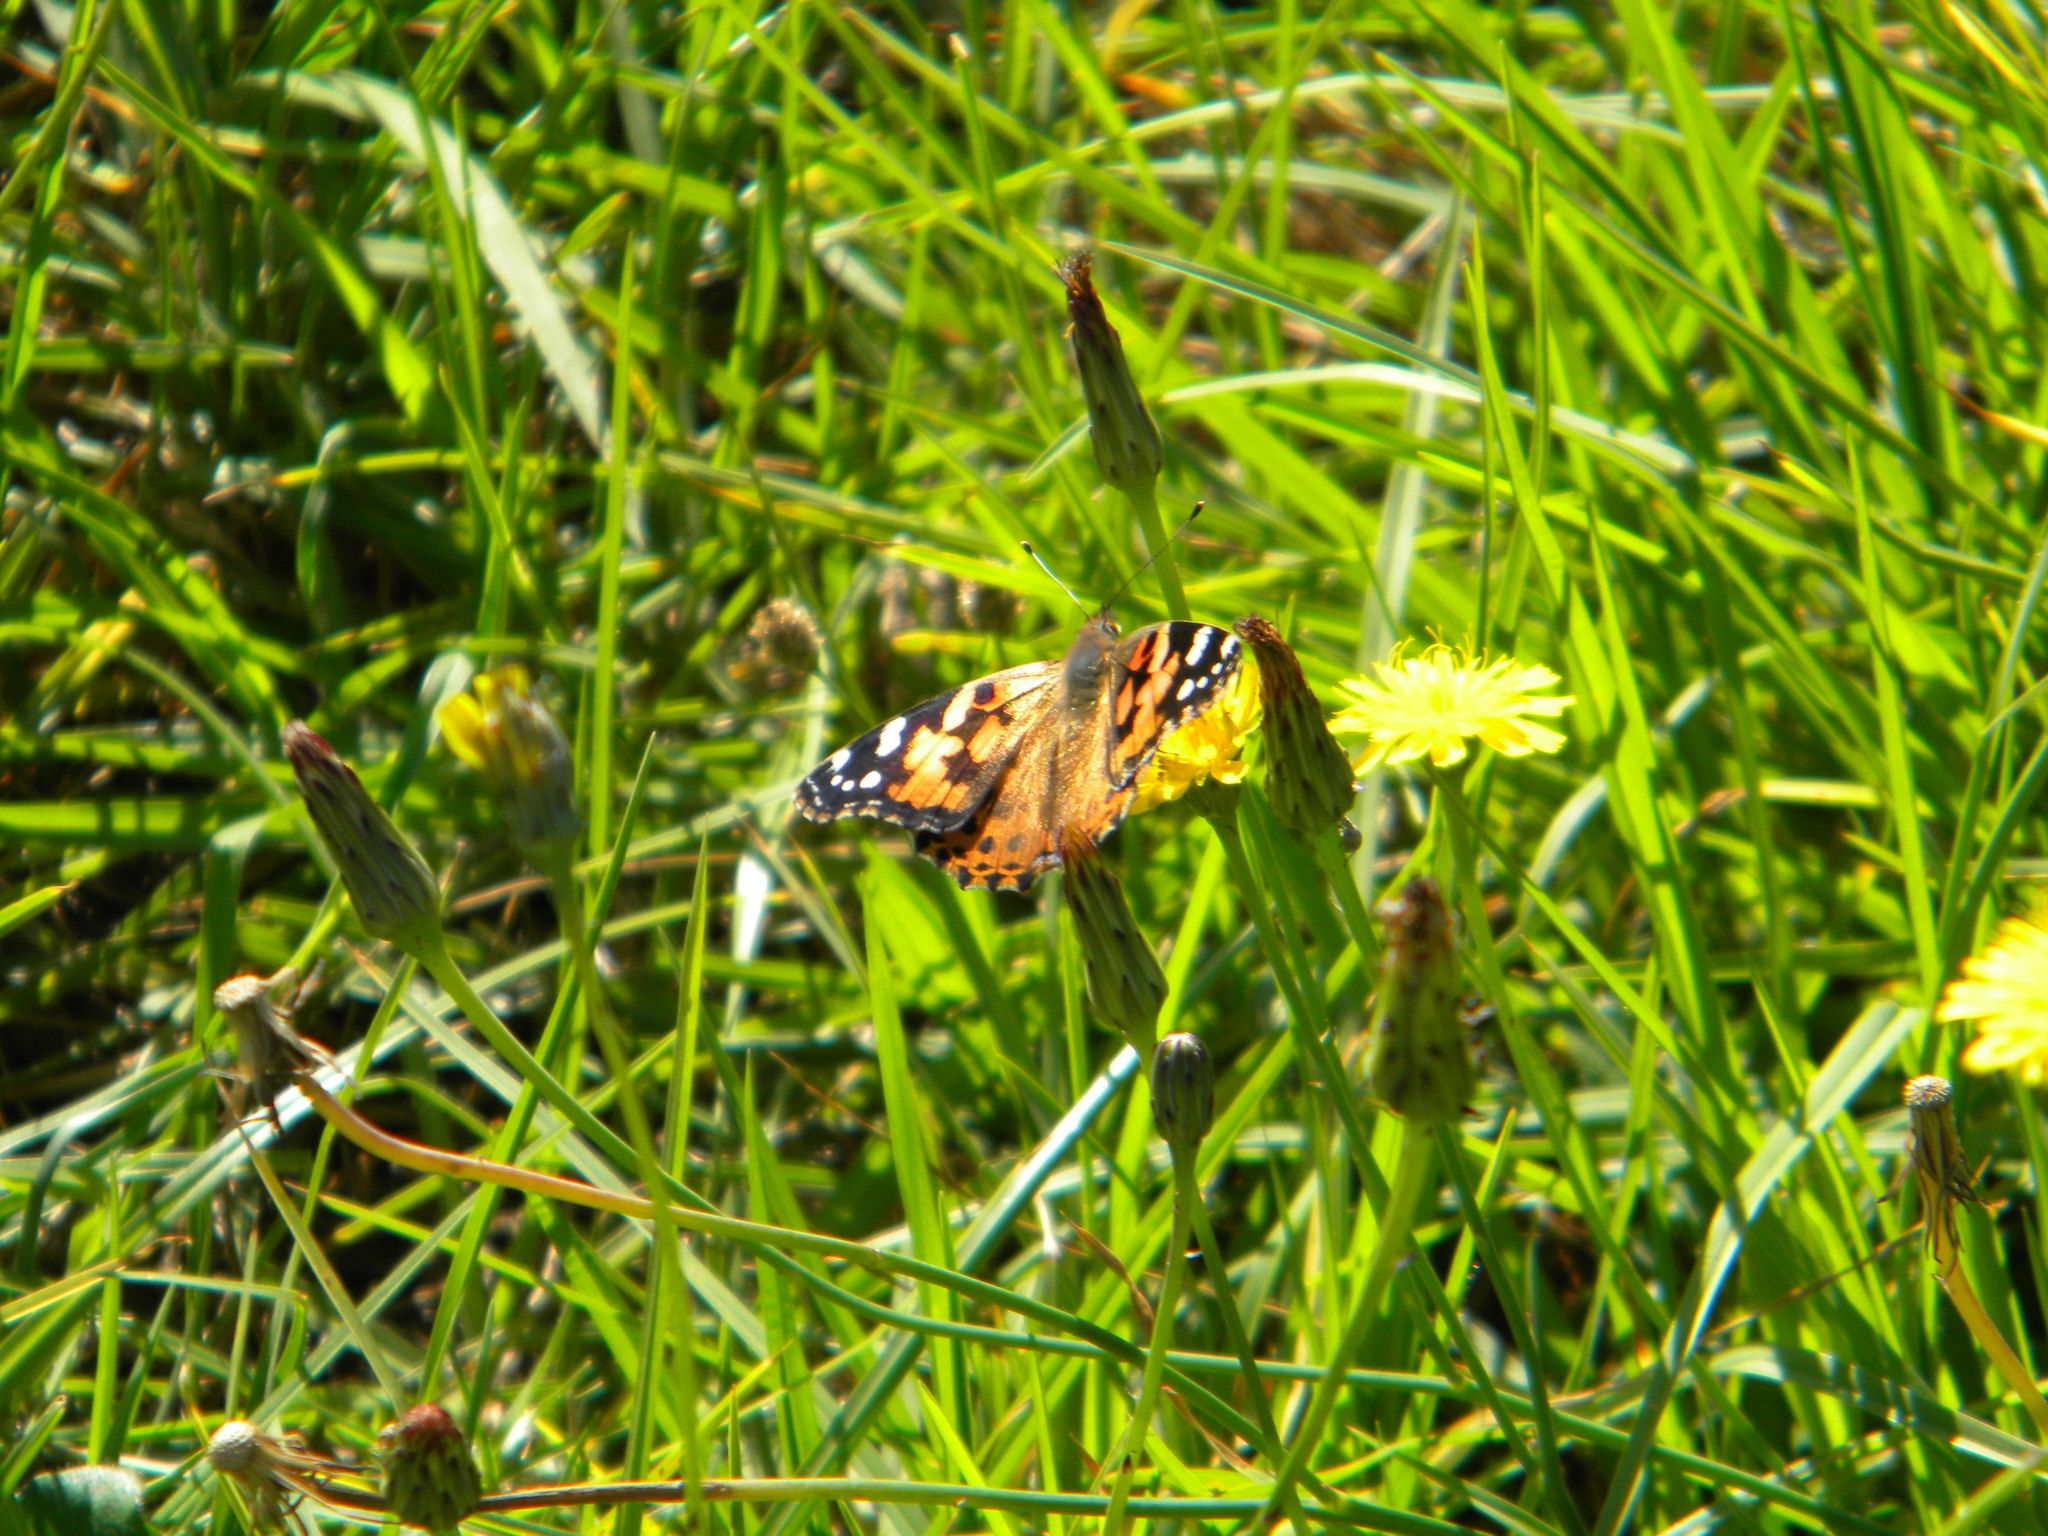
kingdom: Animalia
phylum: Arthropoda
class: Insecta
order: Lepidoptera
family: Nymphalidae
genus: Vanessa
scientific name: Vanessa cardui
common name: Painted lady
